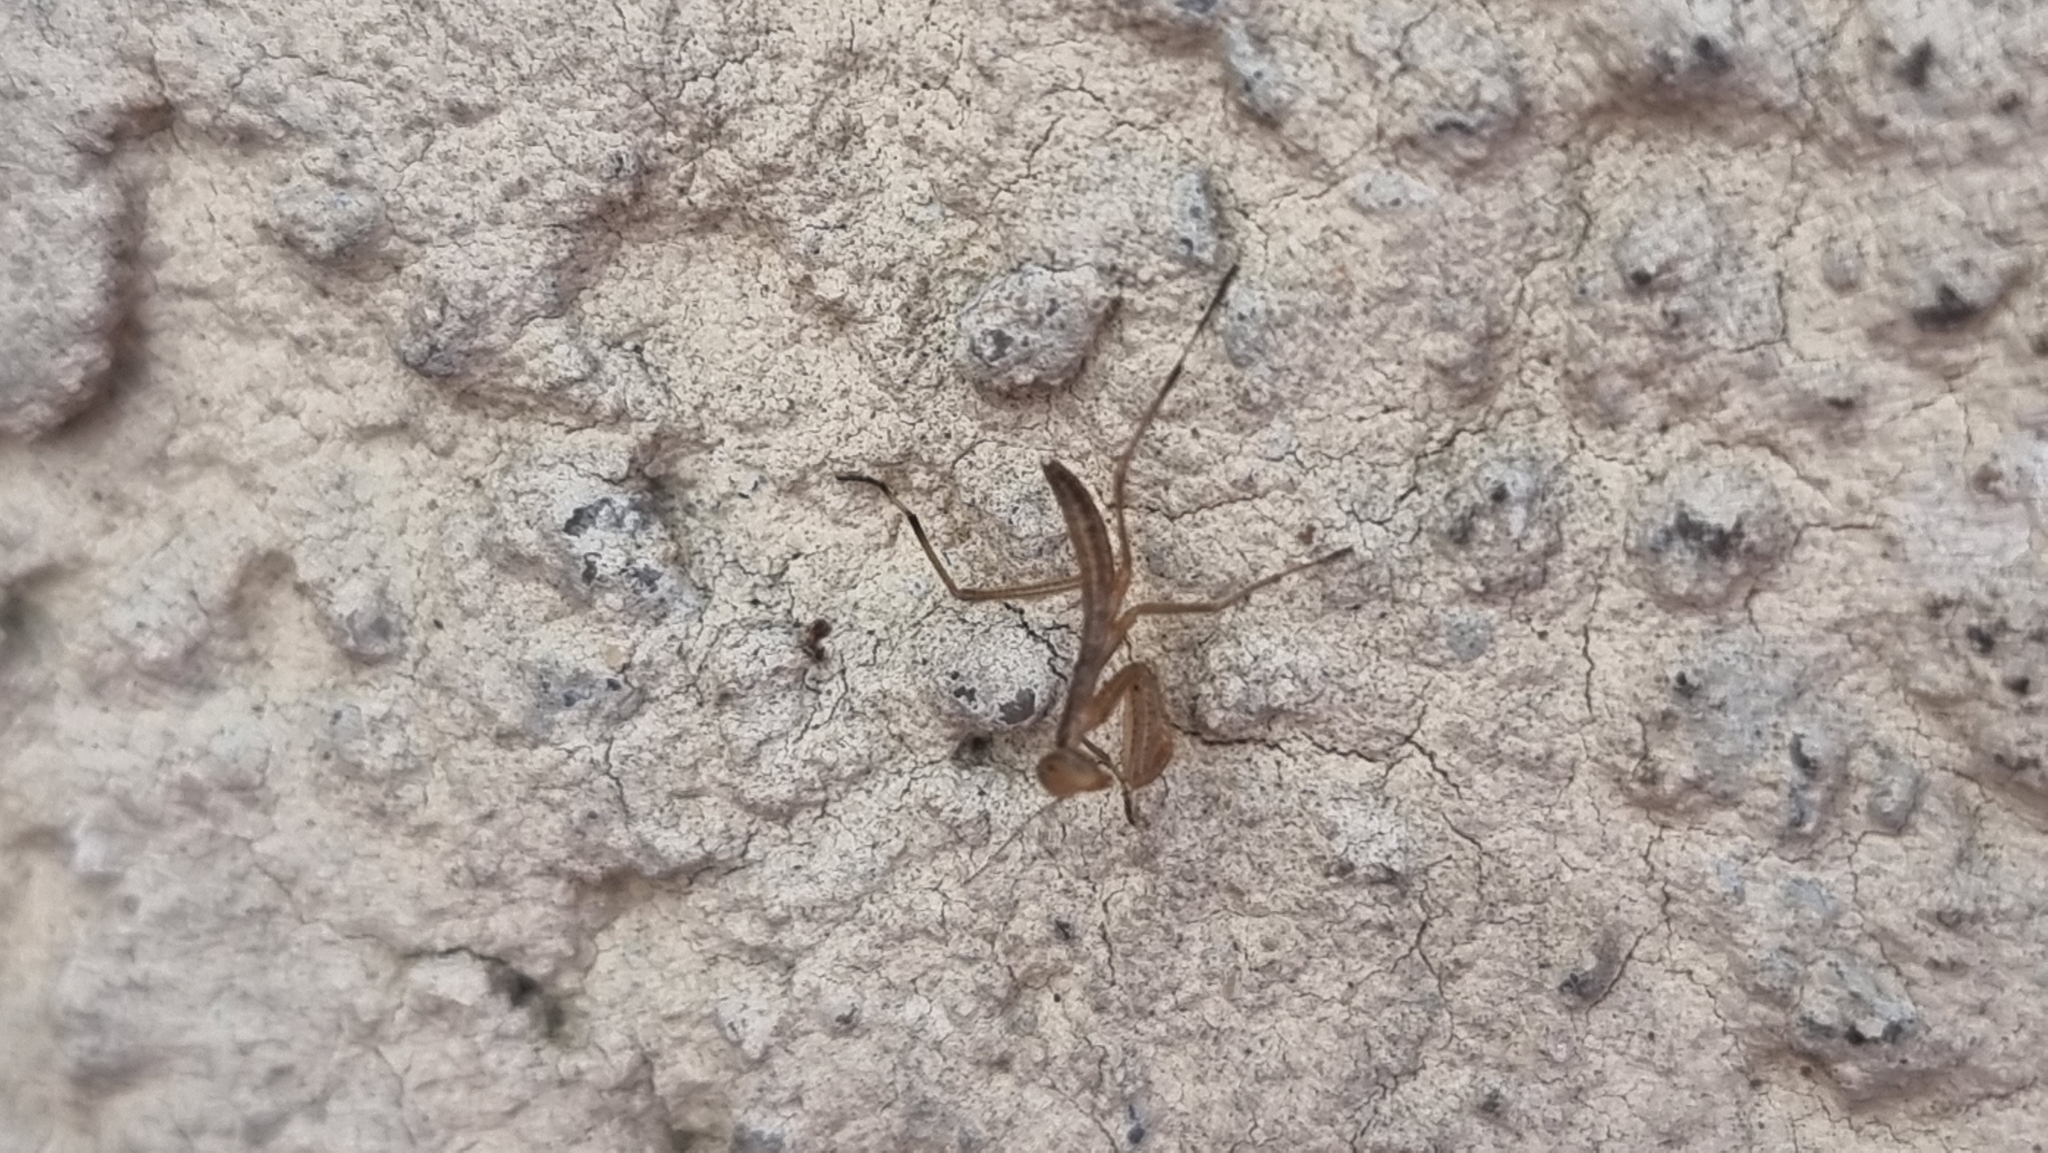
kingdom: Animalia
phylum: Arthropoda
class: Insecta
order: Mantodea
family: Mantidae
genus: Mantis
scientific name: Mantis religiosa
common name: Praying mantis
